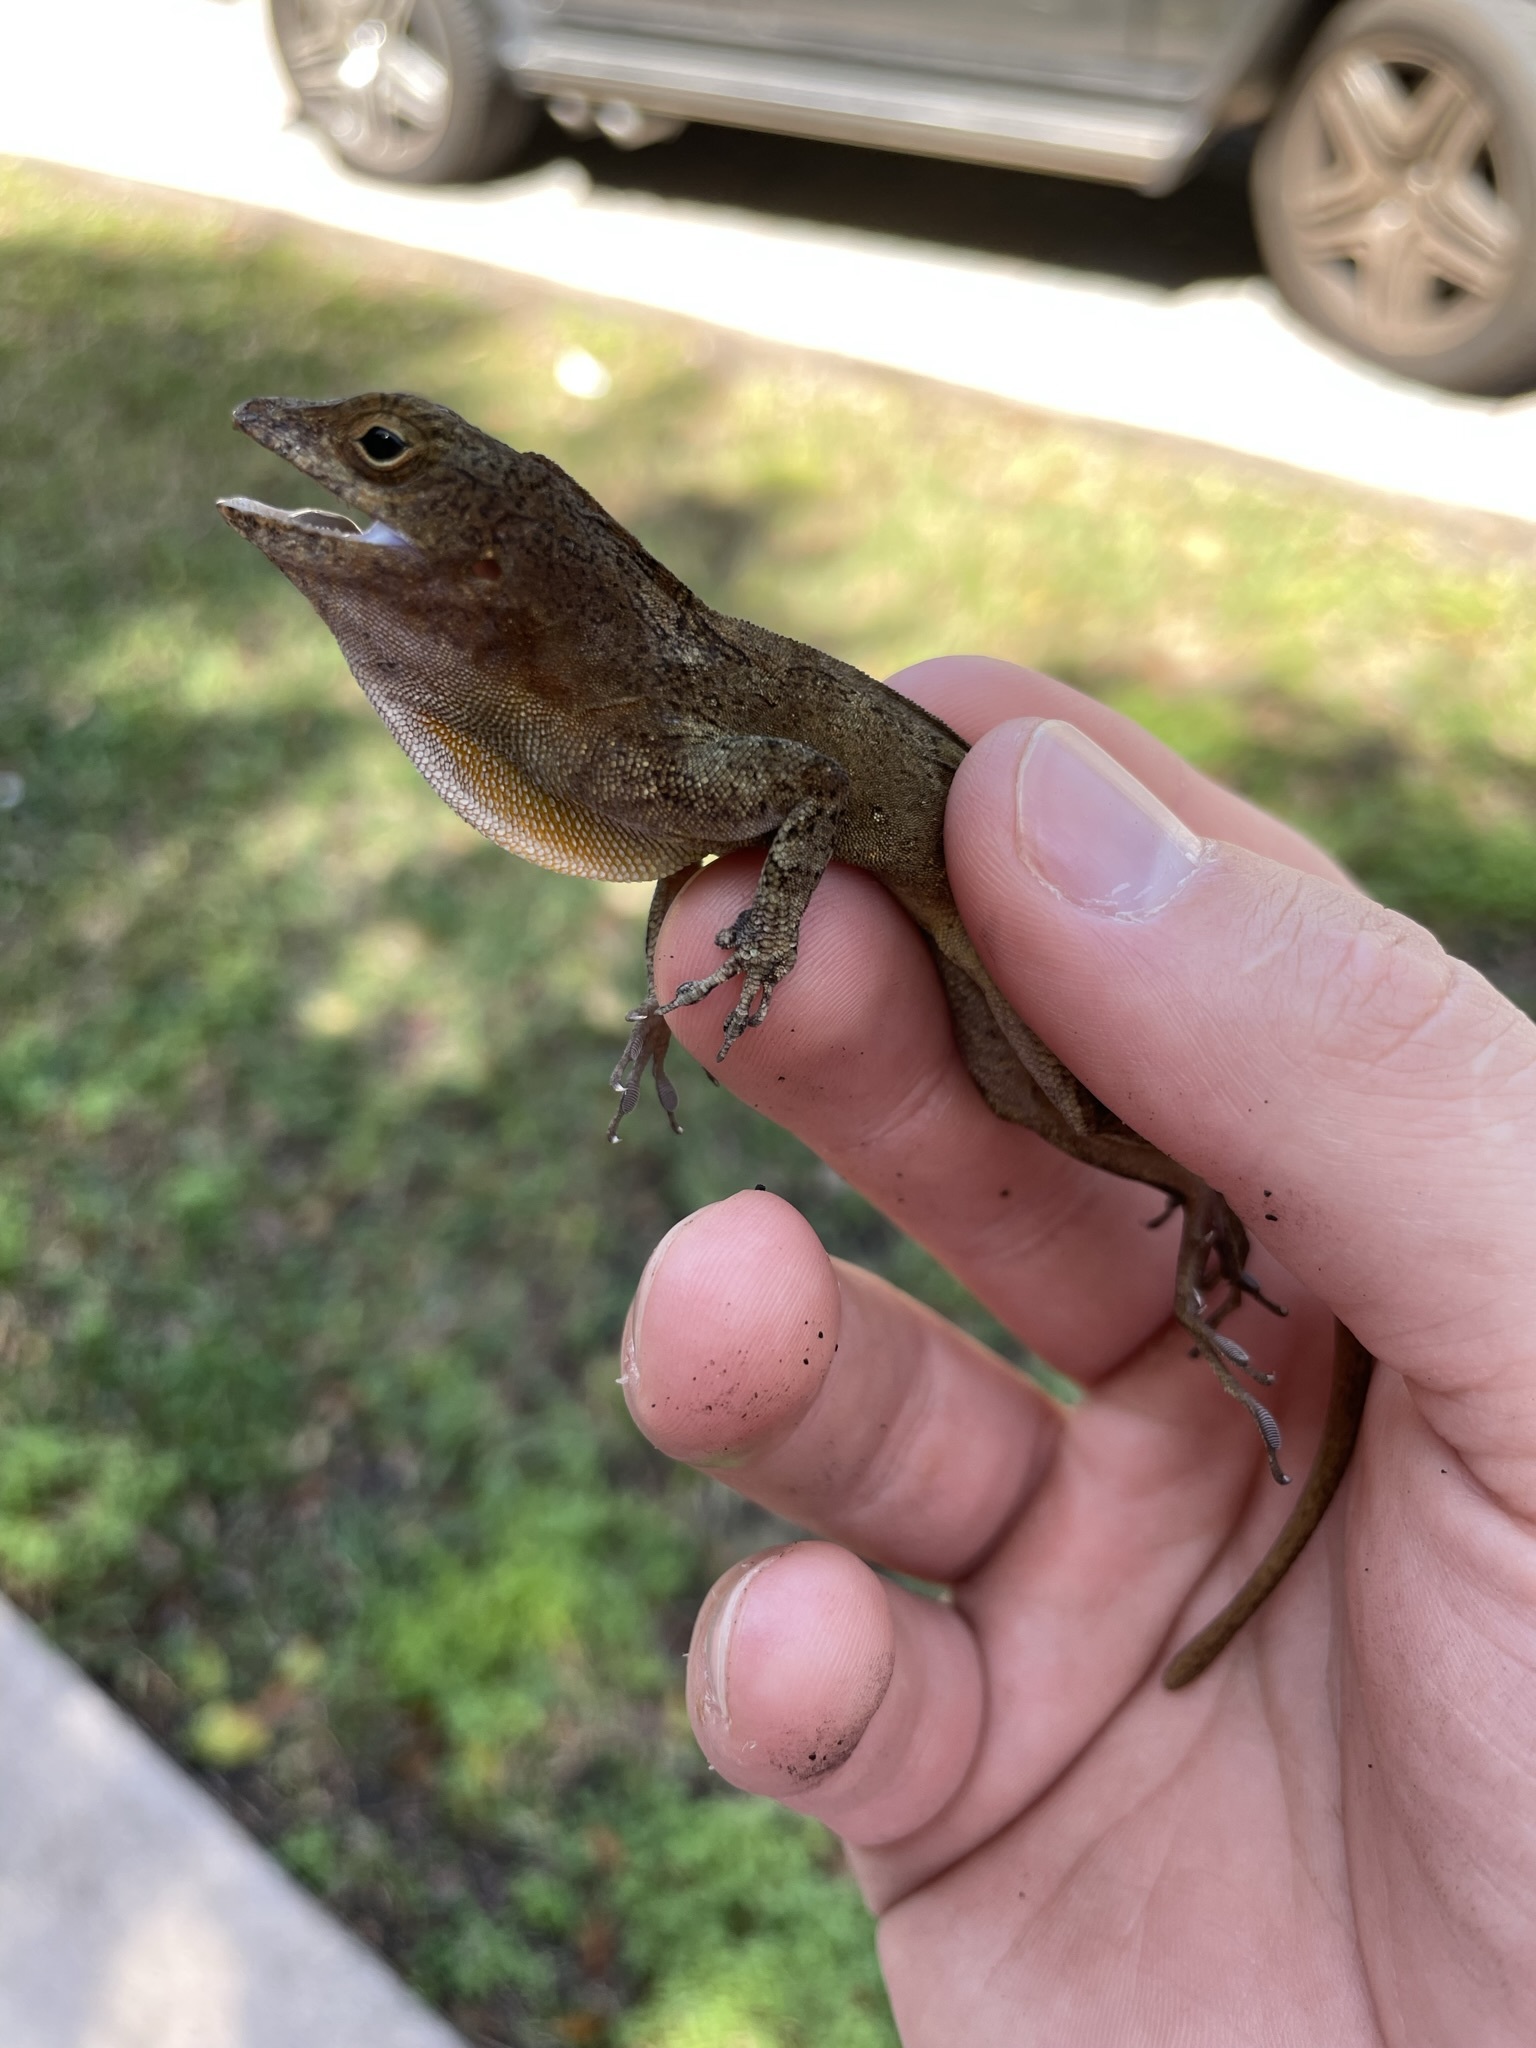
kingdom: Animalia
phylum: Chordata
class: Squamata
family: Dactyloidae
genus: Anolis
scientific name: Anolis cristatellus
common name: Crested anole
